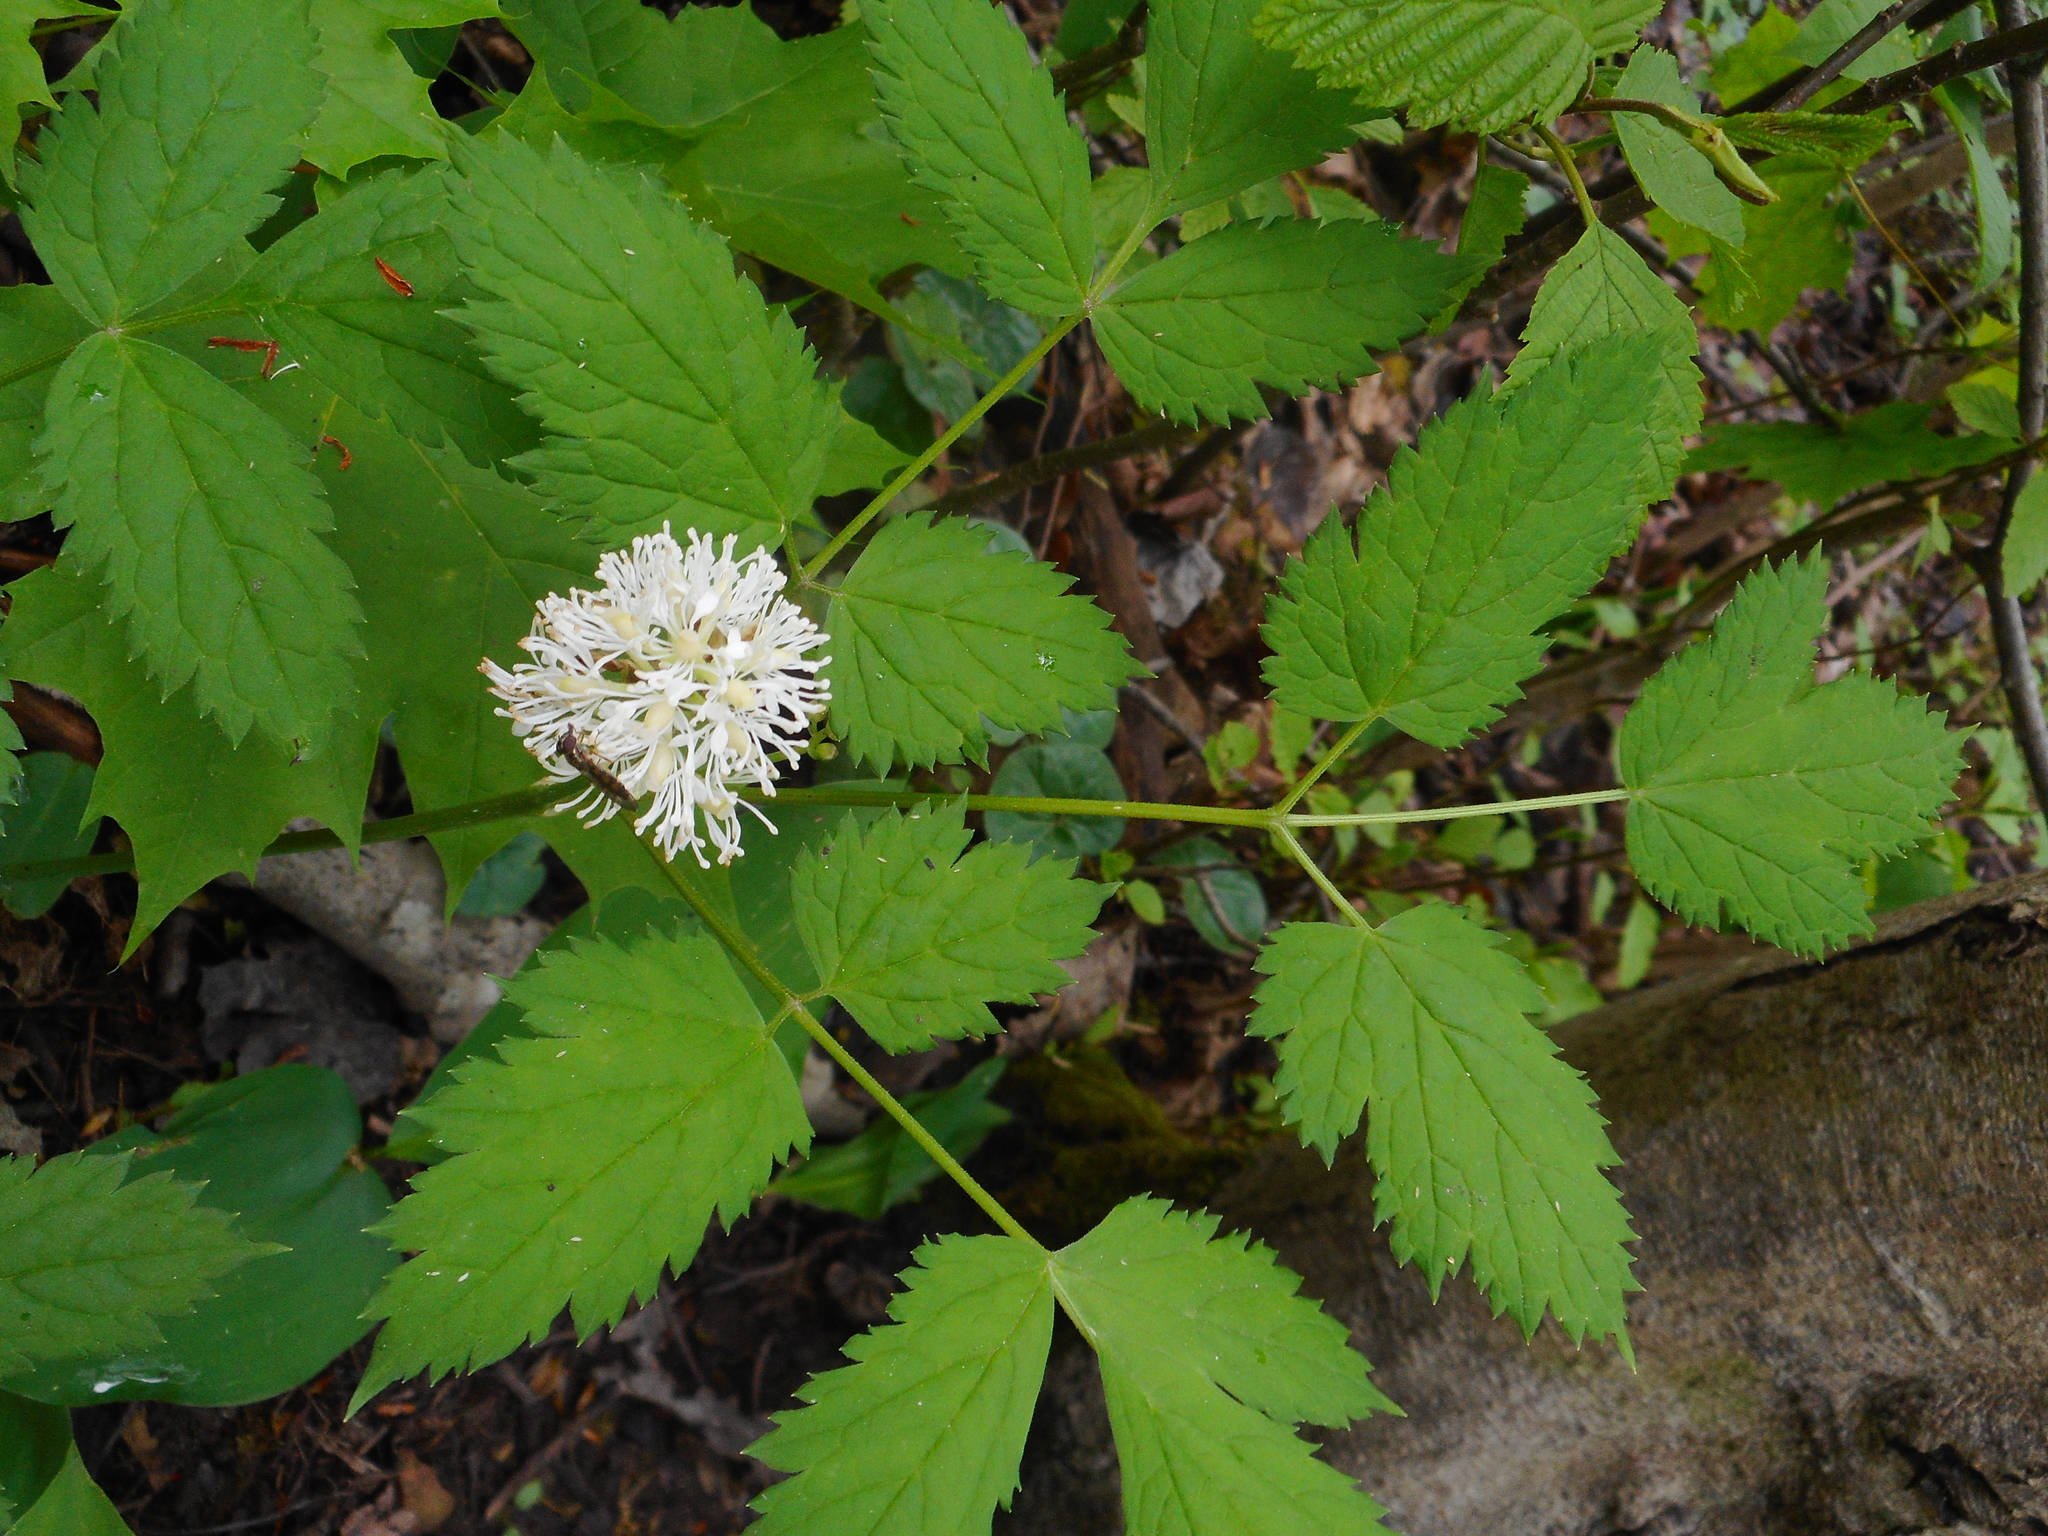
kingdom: Plantae
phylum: Tracheophyta
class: Magnoliopsida
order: Ranunculales
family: Ranunculaceae
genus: Actaea
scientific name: Actaea spicata
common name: Baneberry
